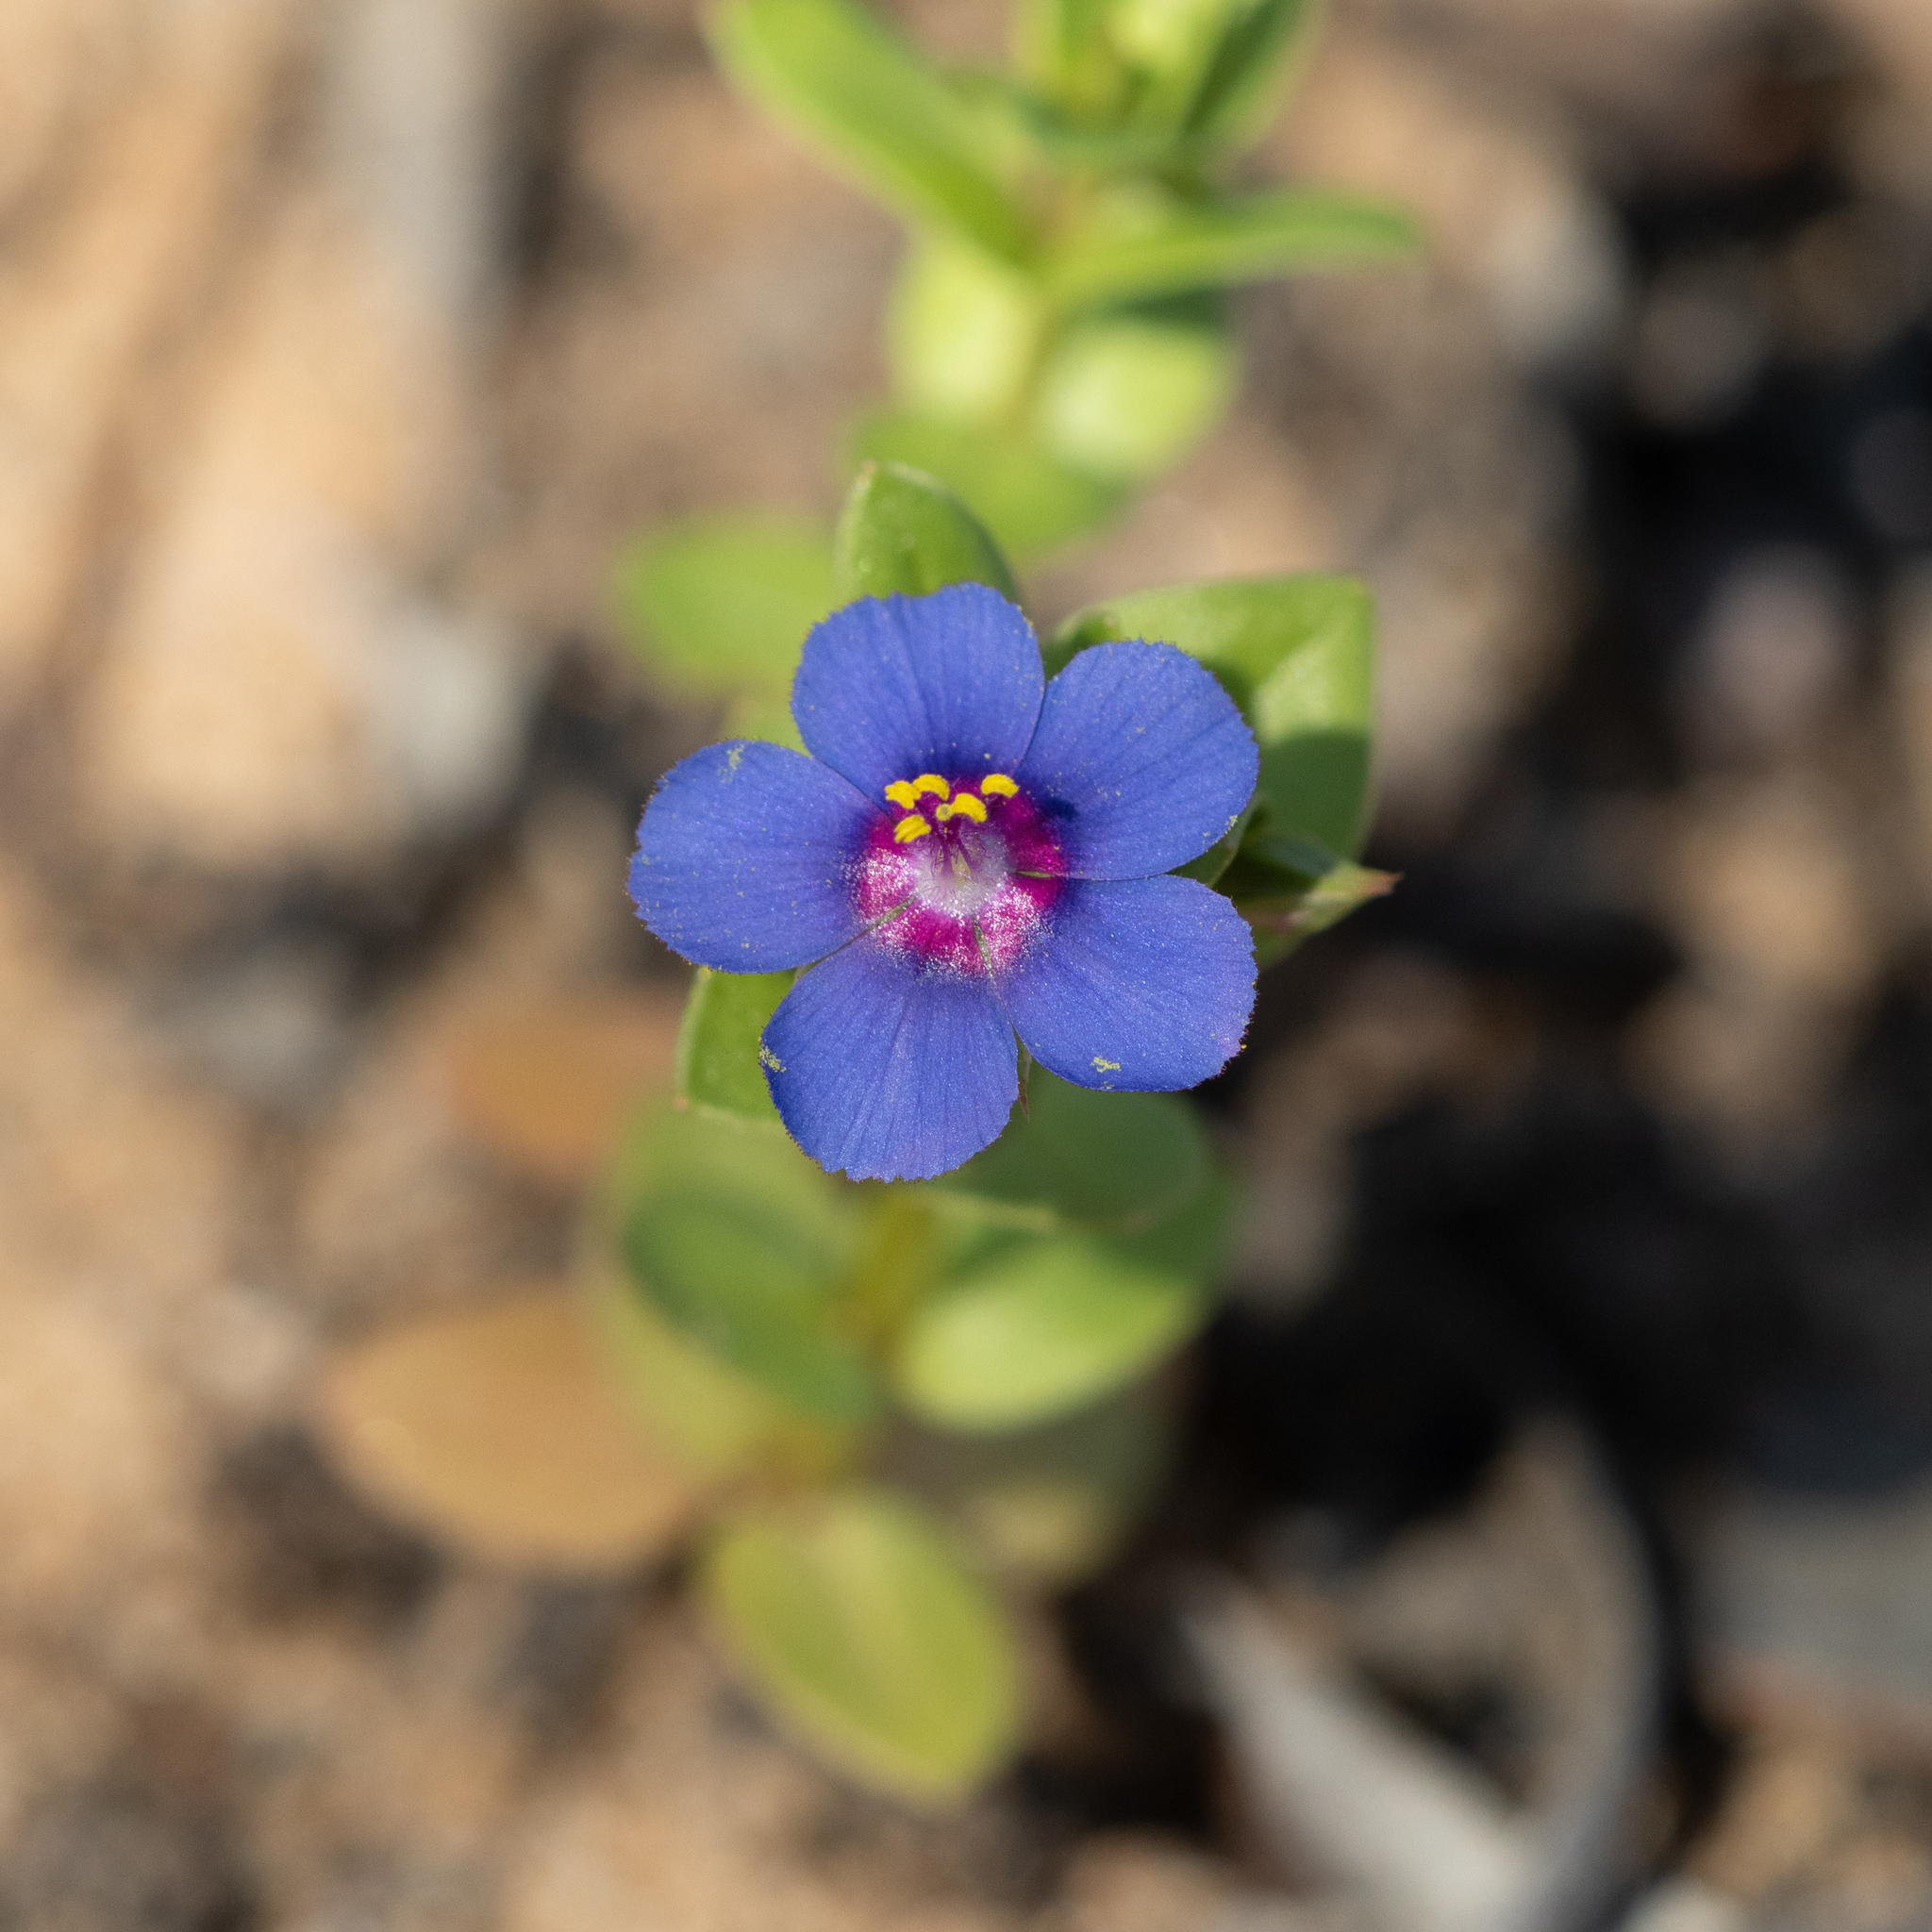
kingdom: Plantae
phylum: Tracheophyta
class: Magnoliopsida
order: Ericales
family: Primulaceae
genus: Lysimachia
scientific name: Lysimachia loeflingii
